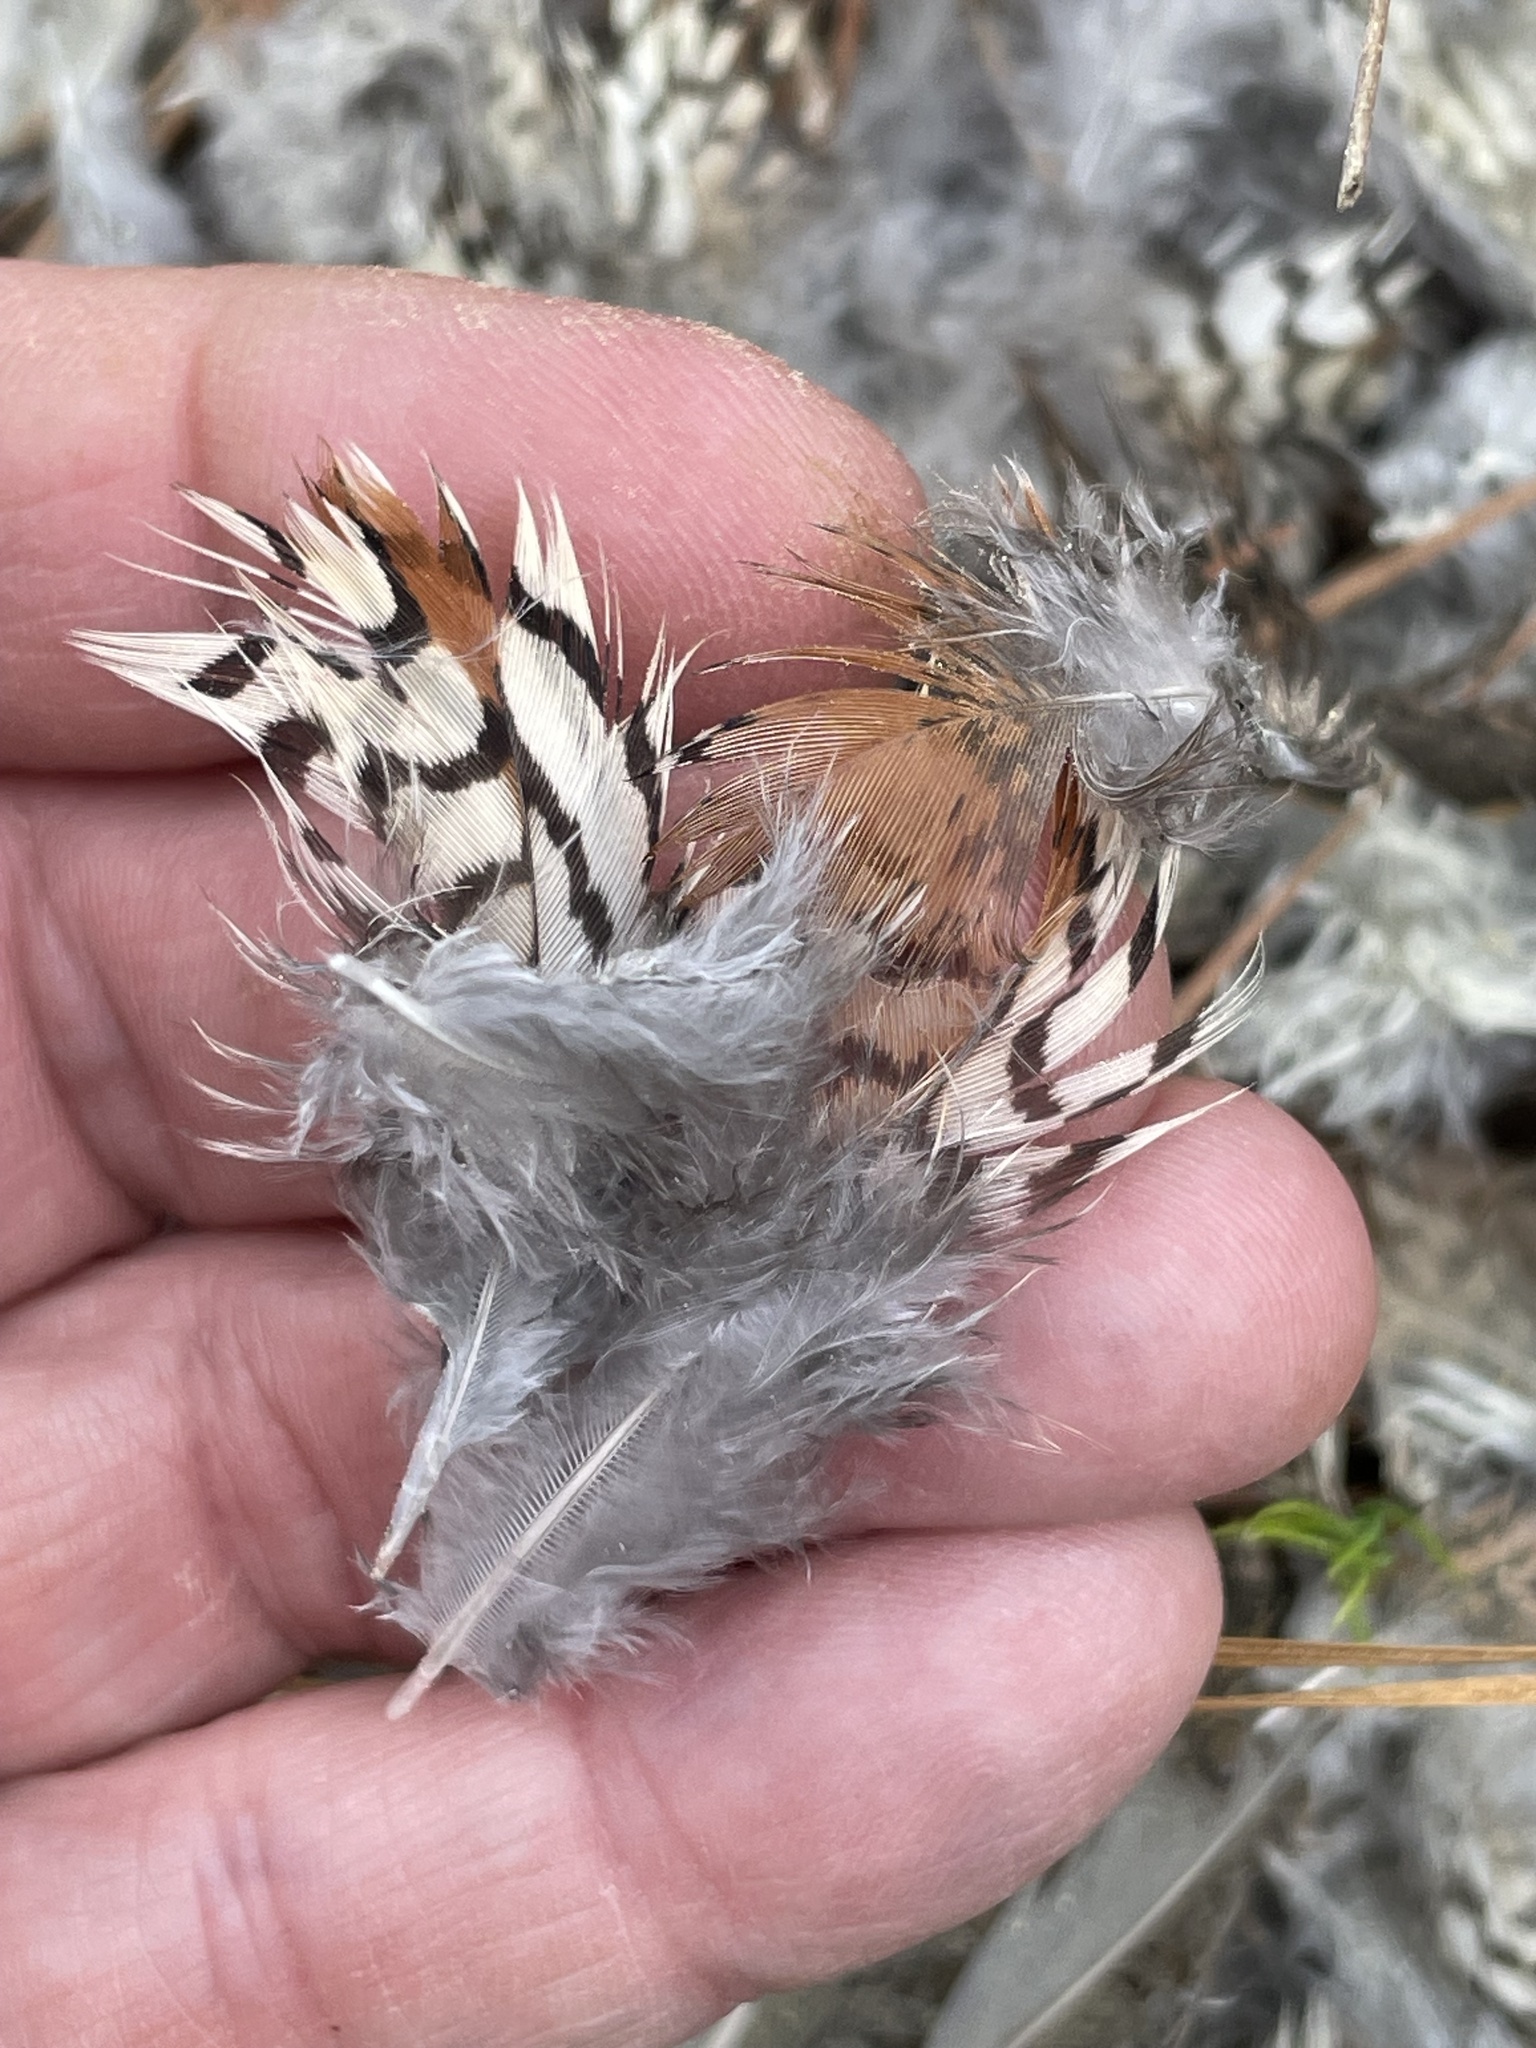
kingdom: Animalia
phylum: Chordata
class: Aves
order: Galliformes
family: Odontophoridae
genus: Colinus
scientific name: Colinus virginianus
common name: Northern bobwhite
